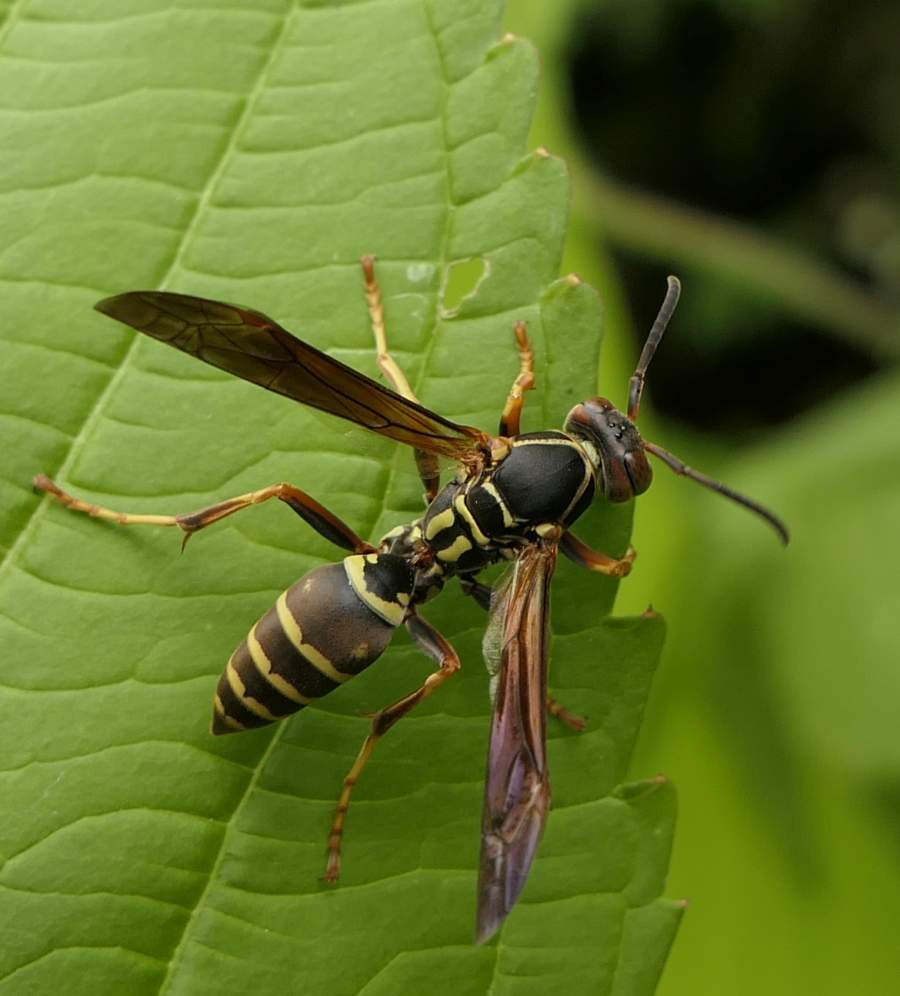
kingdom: Animalia
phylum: Arthropoda
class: Insecta
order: Hymenoptera
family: Eumenidae
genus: Polistes
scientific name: Polistes fuscatus
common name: Dark paper wasp
